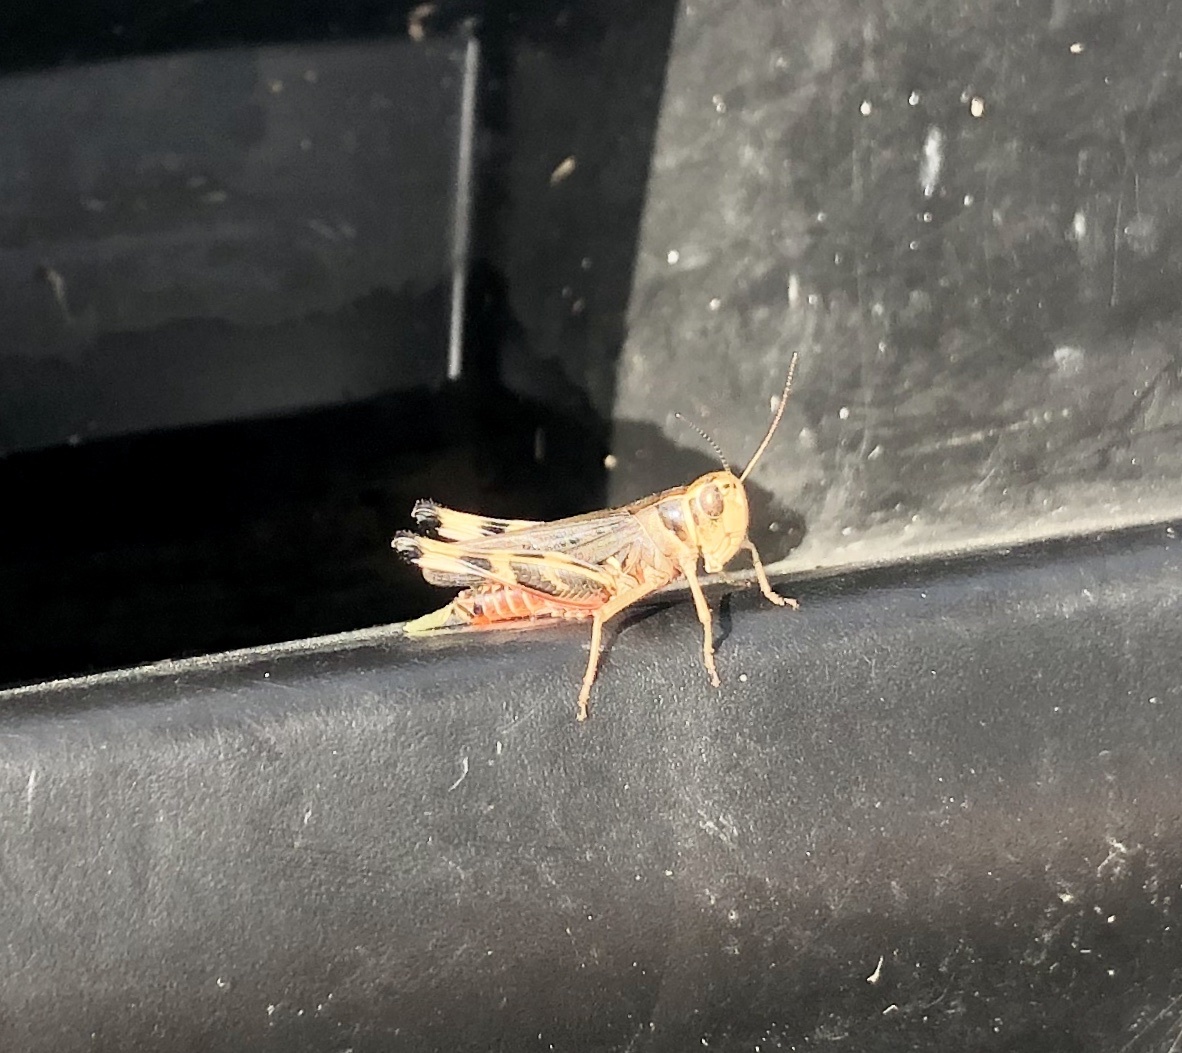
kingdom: Animalia
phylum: Arthropoda
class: Insecta
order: Orthoptera
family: Acrididae
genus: Boopedon
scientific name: Boopedon gracile
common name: Graceful range grasshopper
